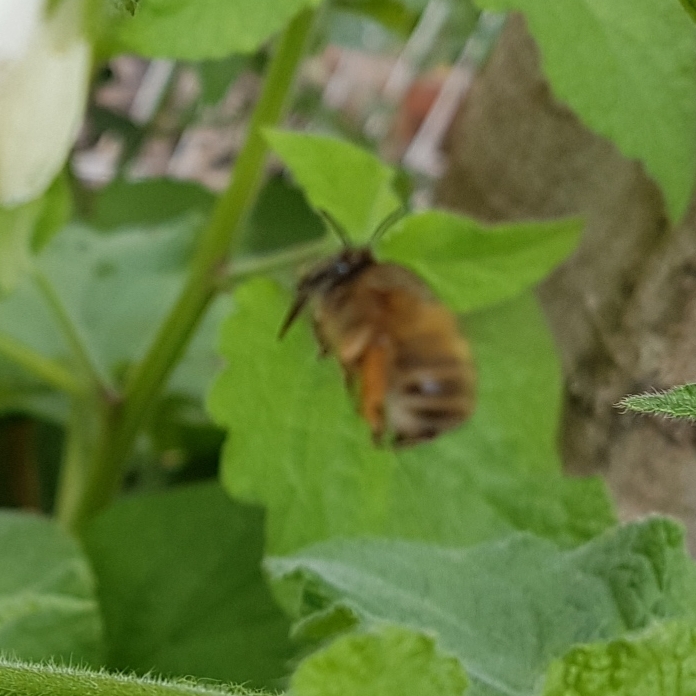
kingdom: Animalia
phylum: Arthropoda
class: Insecta
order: Hymenoptera
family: Apidae
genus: Anthophora
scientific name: Anthophora plumipes
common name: Hairy-footed flower bee
